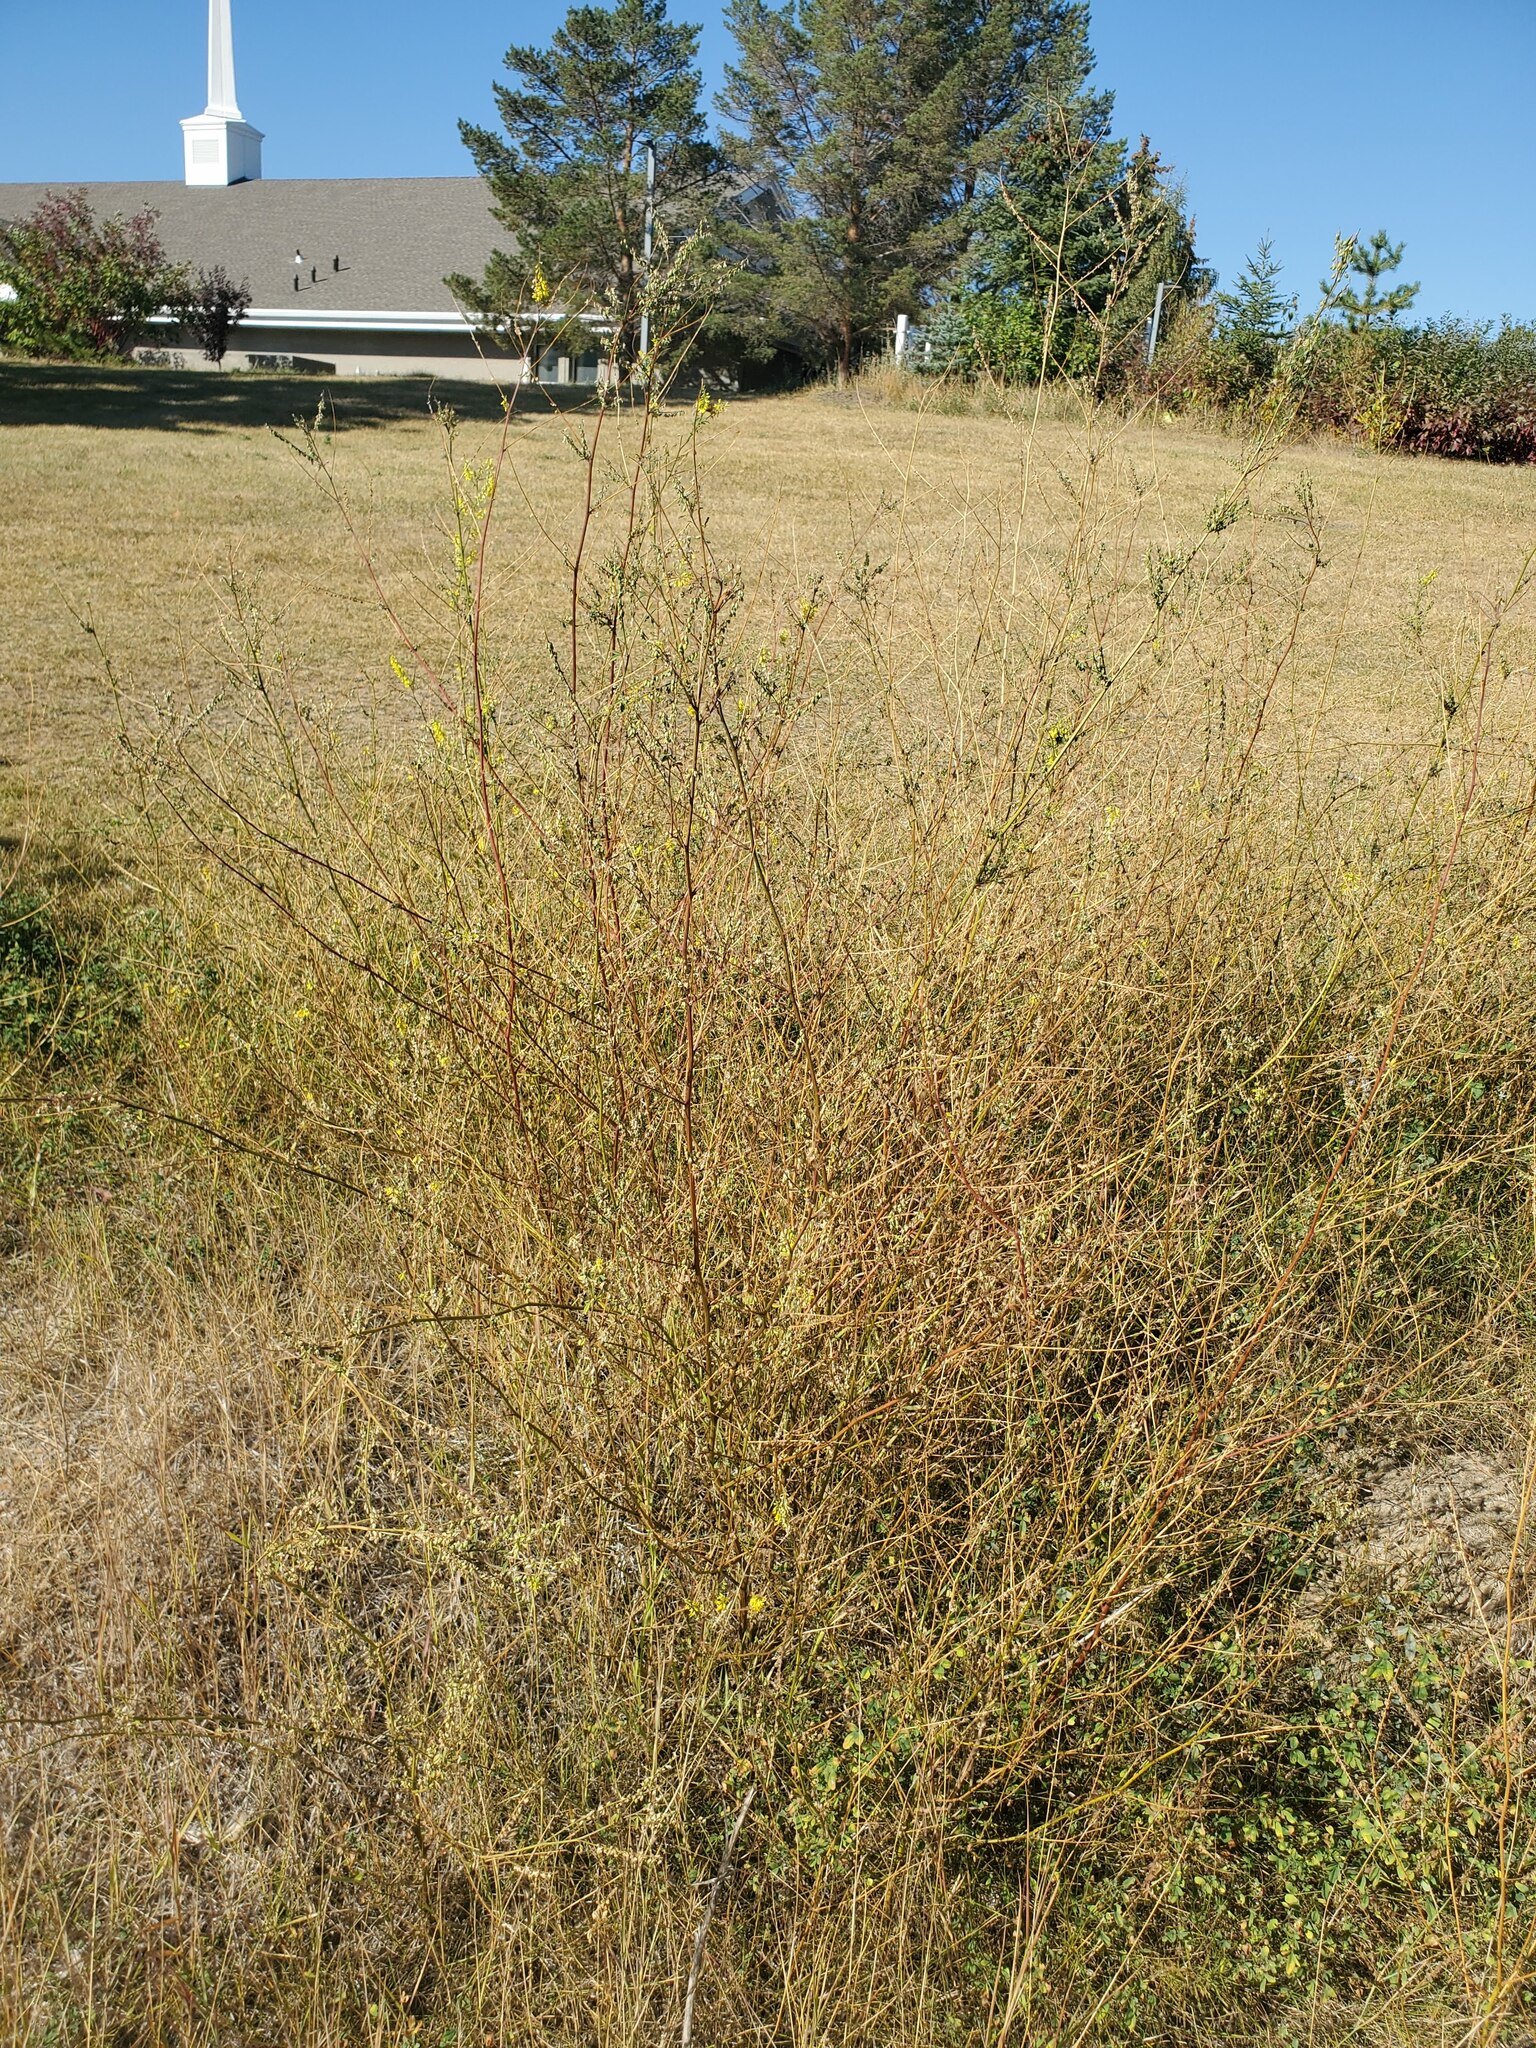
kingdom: Plantae
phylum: Tracheophyta
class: Magnoliopsida
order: Fabales
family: Fabaceae
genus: Melilotus
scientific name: Melilotus officinalis
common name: Sweetclover
